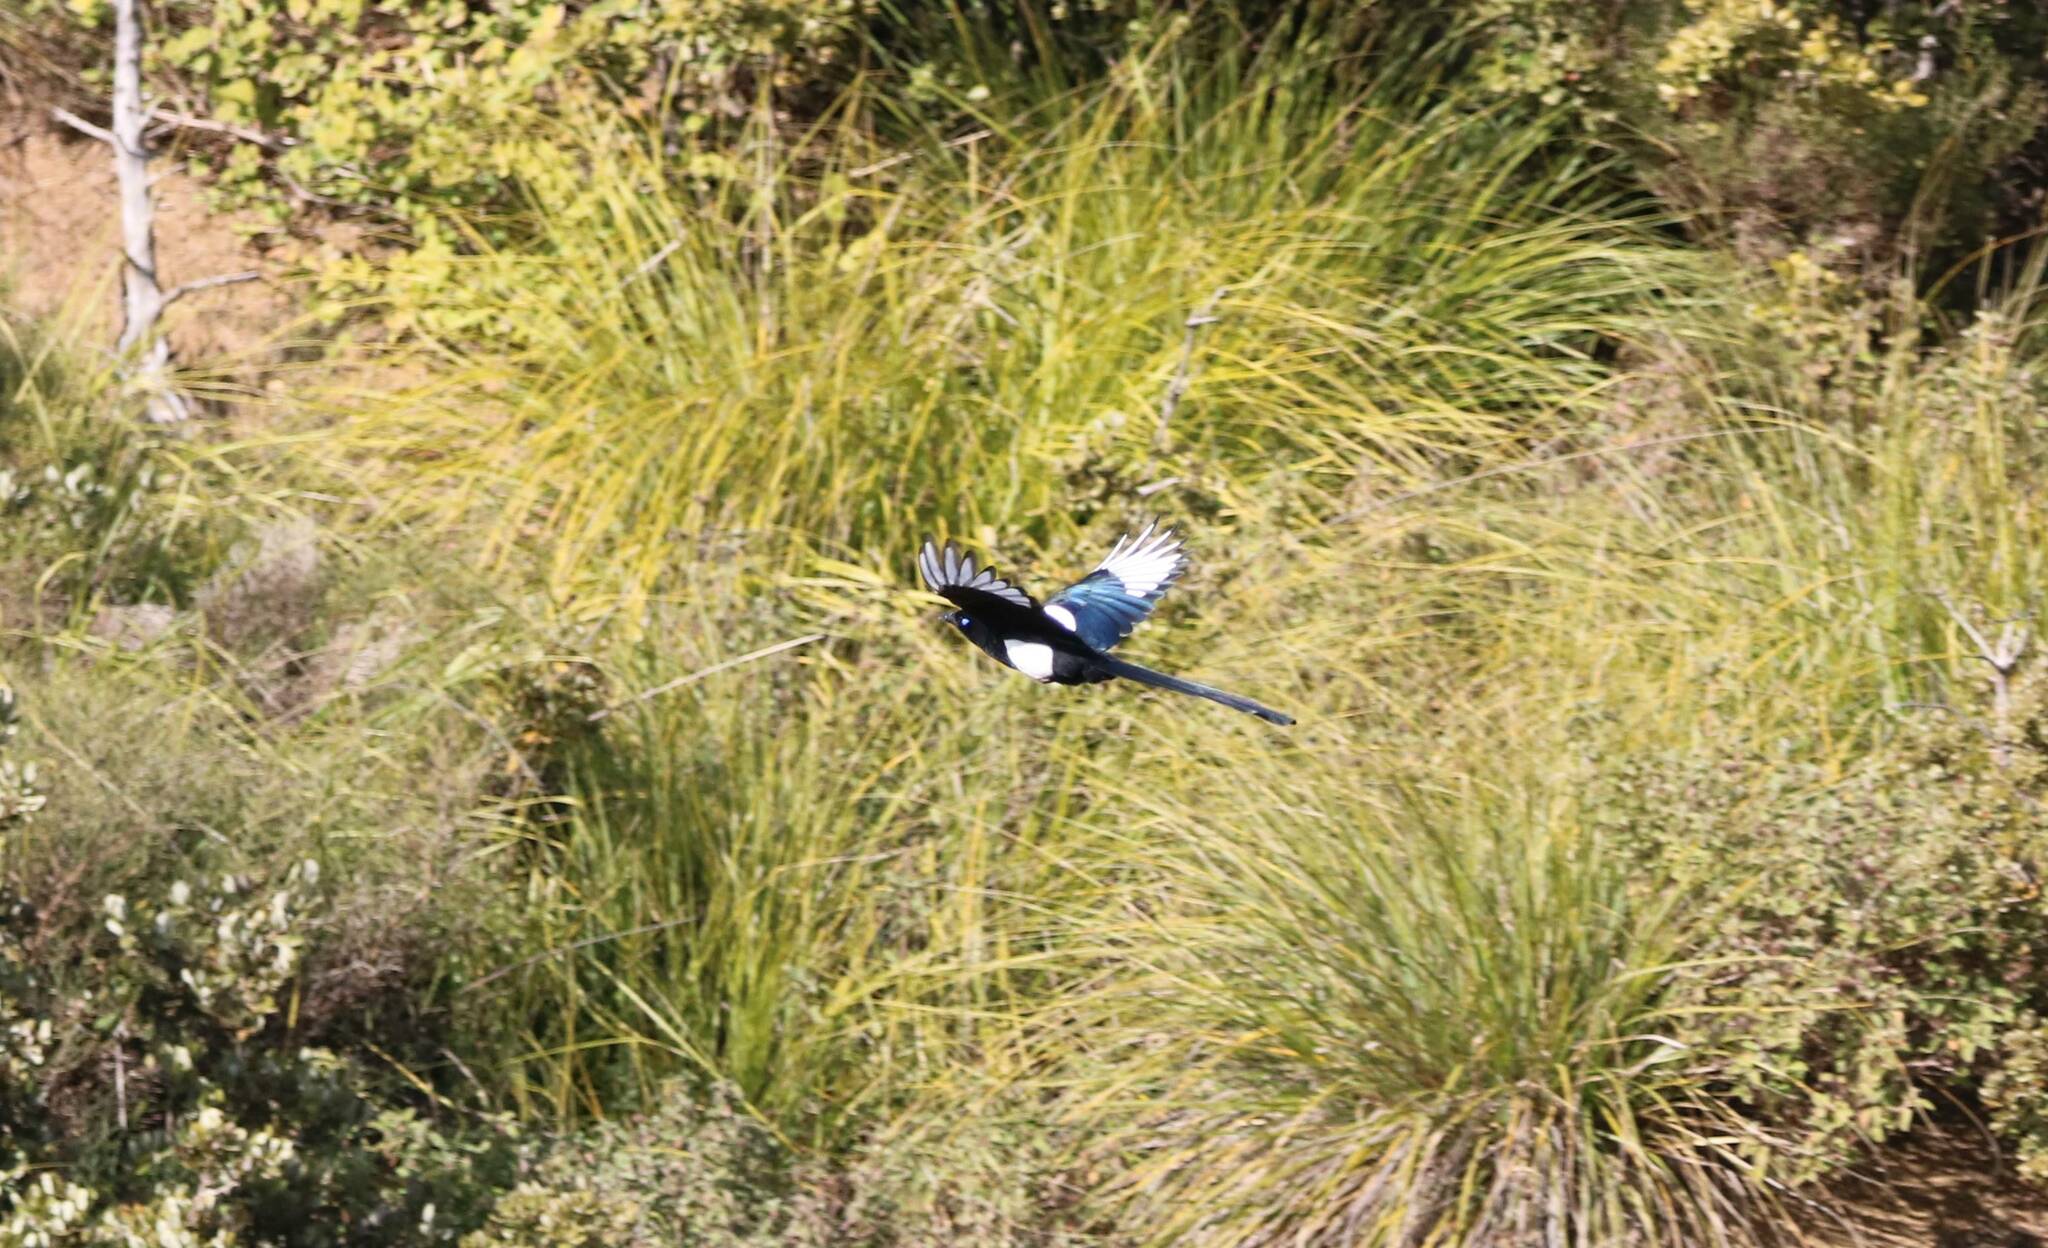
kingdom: Animalia
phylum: Chordata
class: Aves
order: Passeriformes
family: Corvidae
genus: Pica
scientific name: Pica mauritanica
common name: Maghreb magpie
